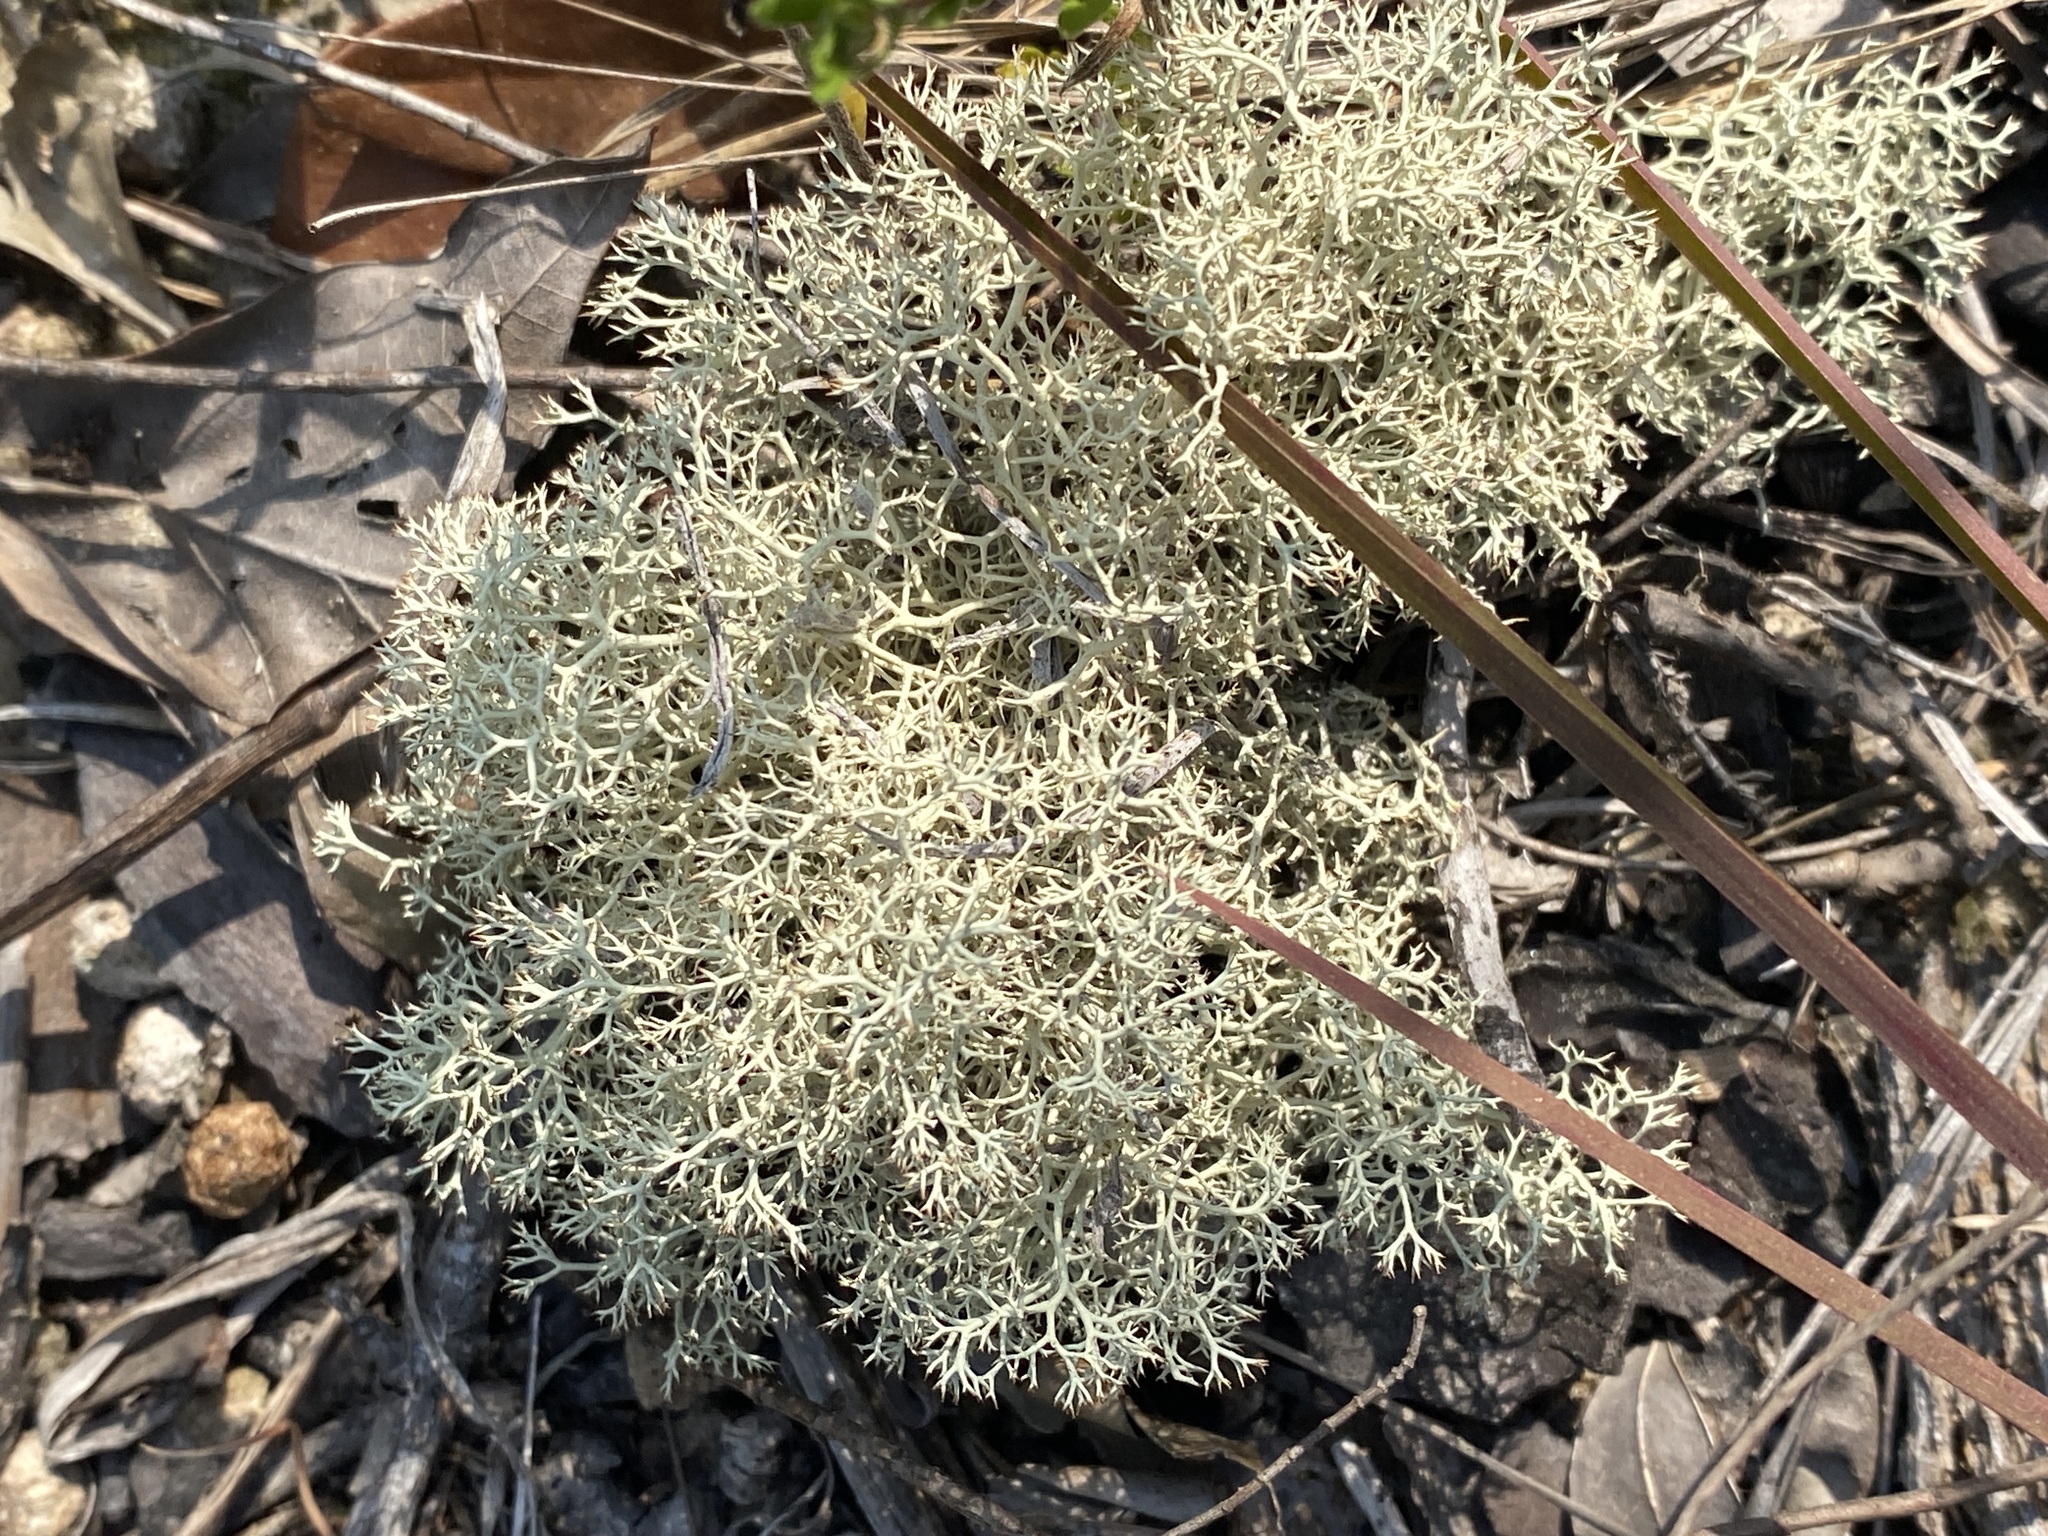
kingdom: Fungi
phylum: Ascomycota
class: Lecanoromycetes
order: Lecanorales
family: Cladoniaceae
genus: Cladonia
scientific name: Cladonia subtenuis
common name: Dixie reindeer lichen
